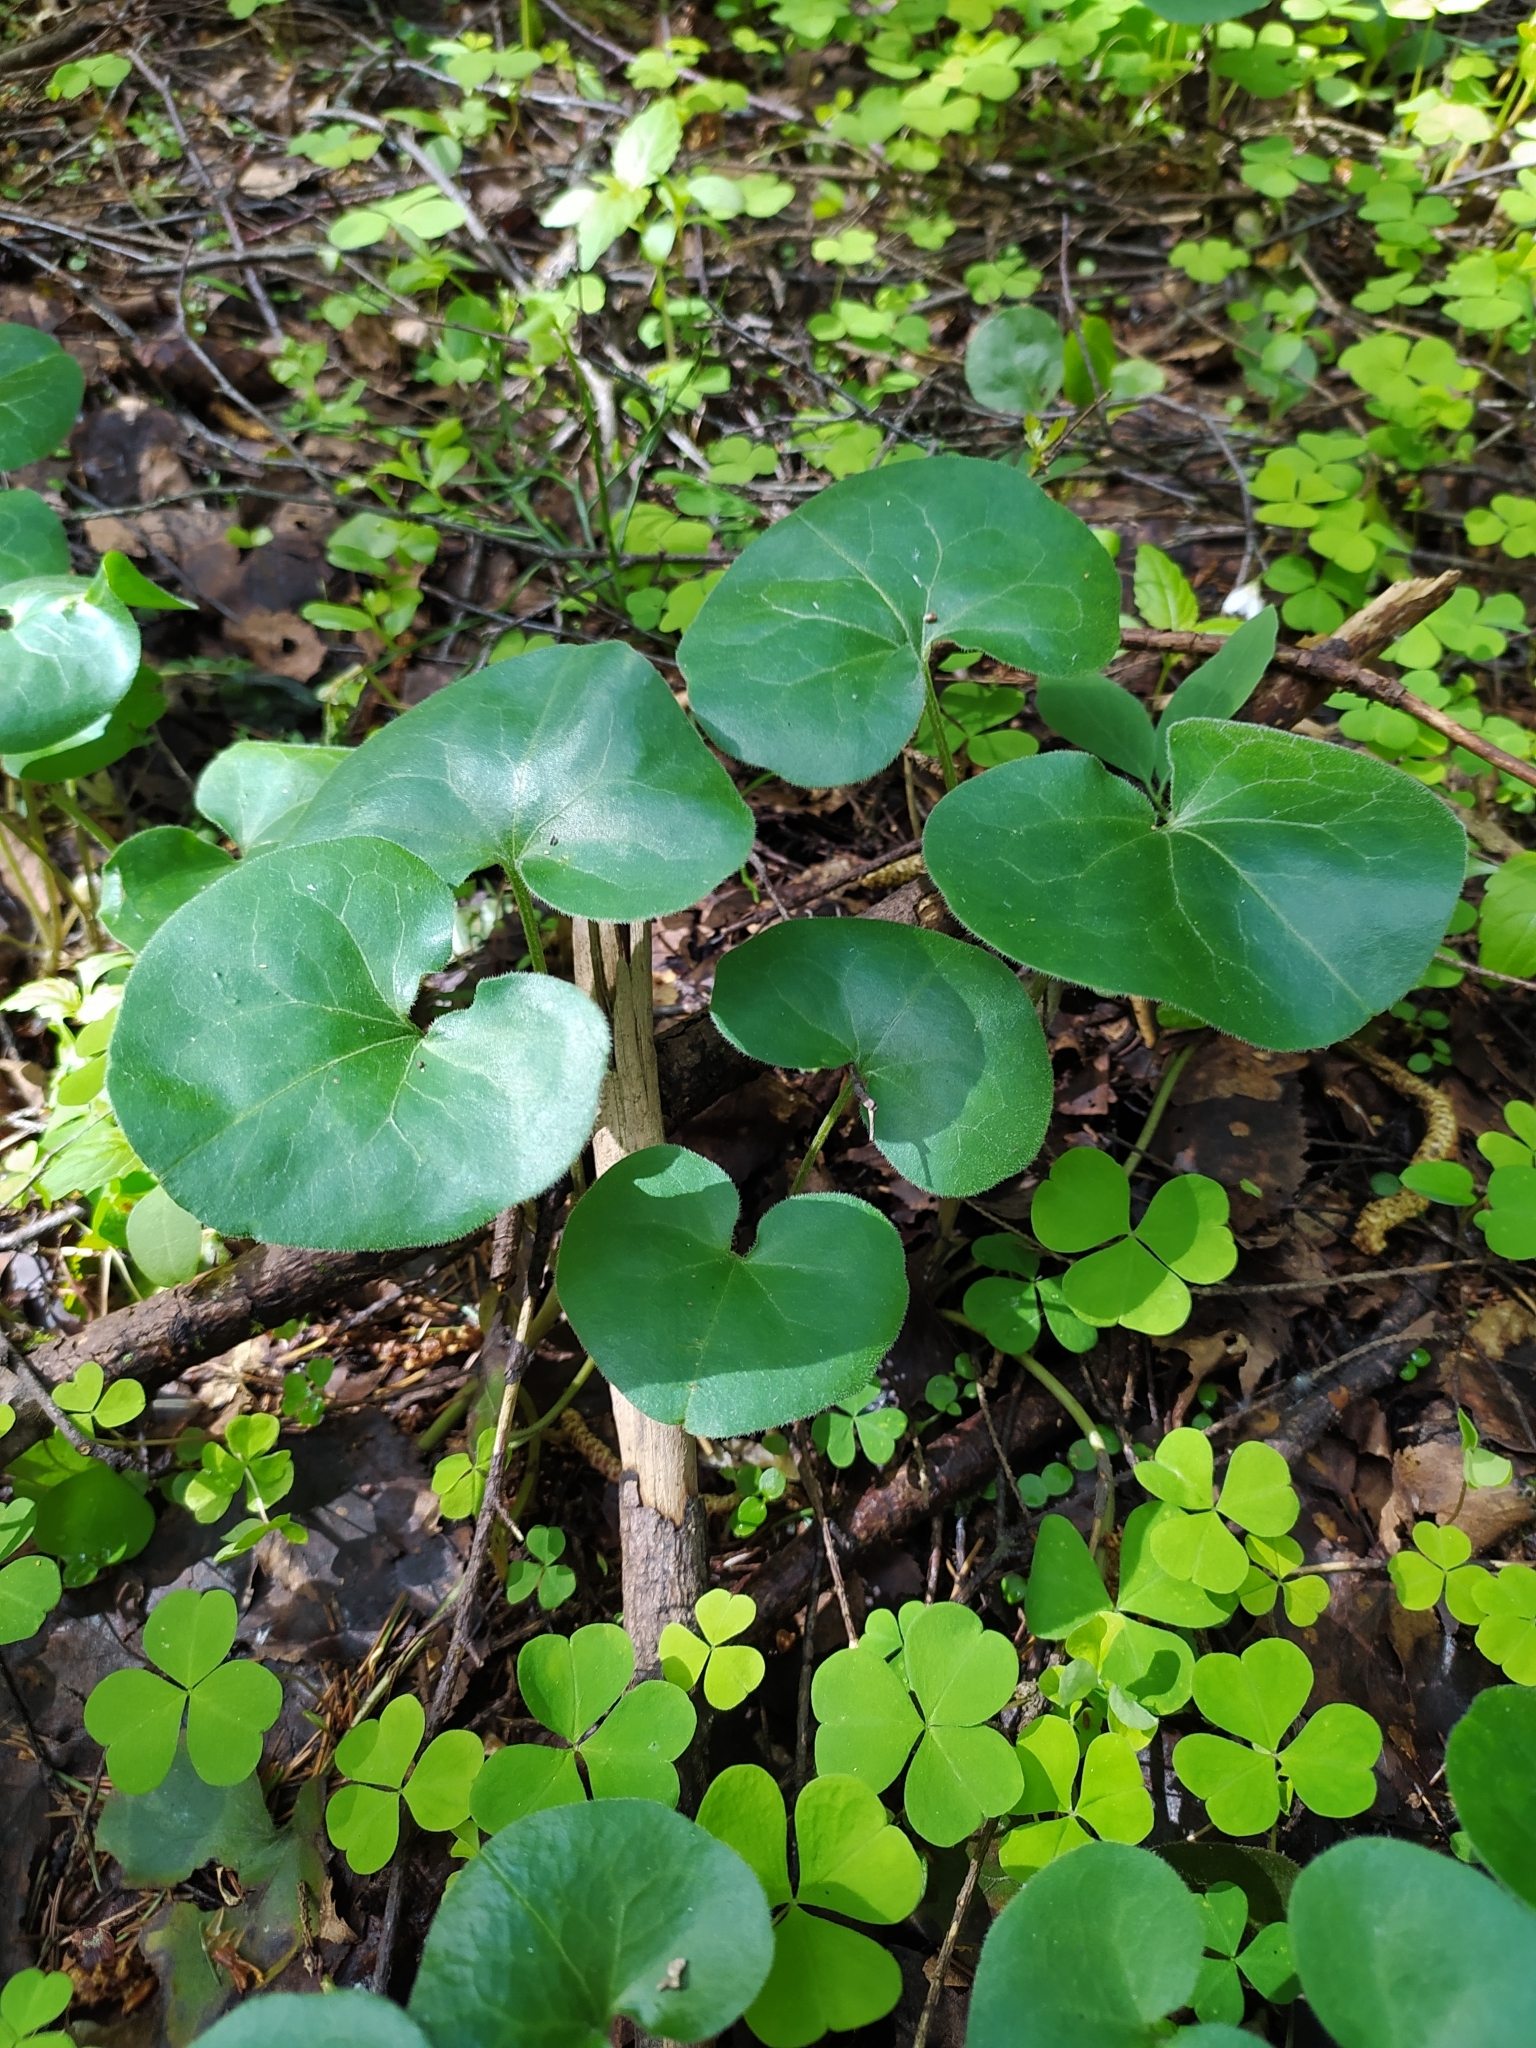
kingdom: Plantae
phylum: Tracheophyta
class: Magnoliopsida
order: Piperales
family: Aristolochiaceae
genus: Asarum
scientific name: Asarum europaeum
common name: Asarabacca
